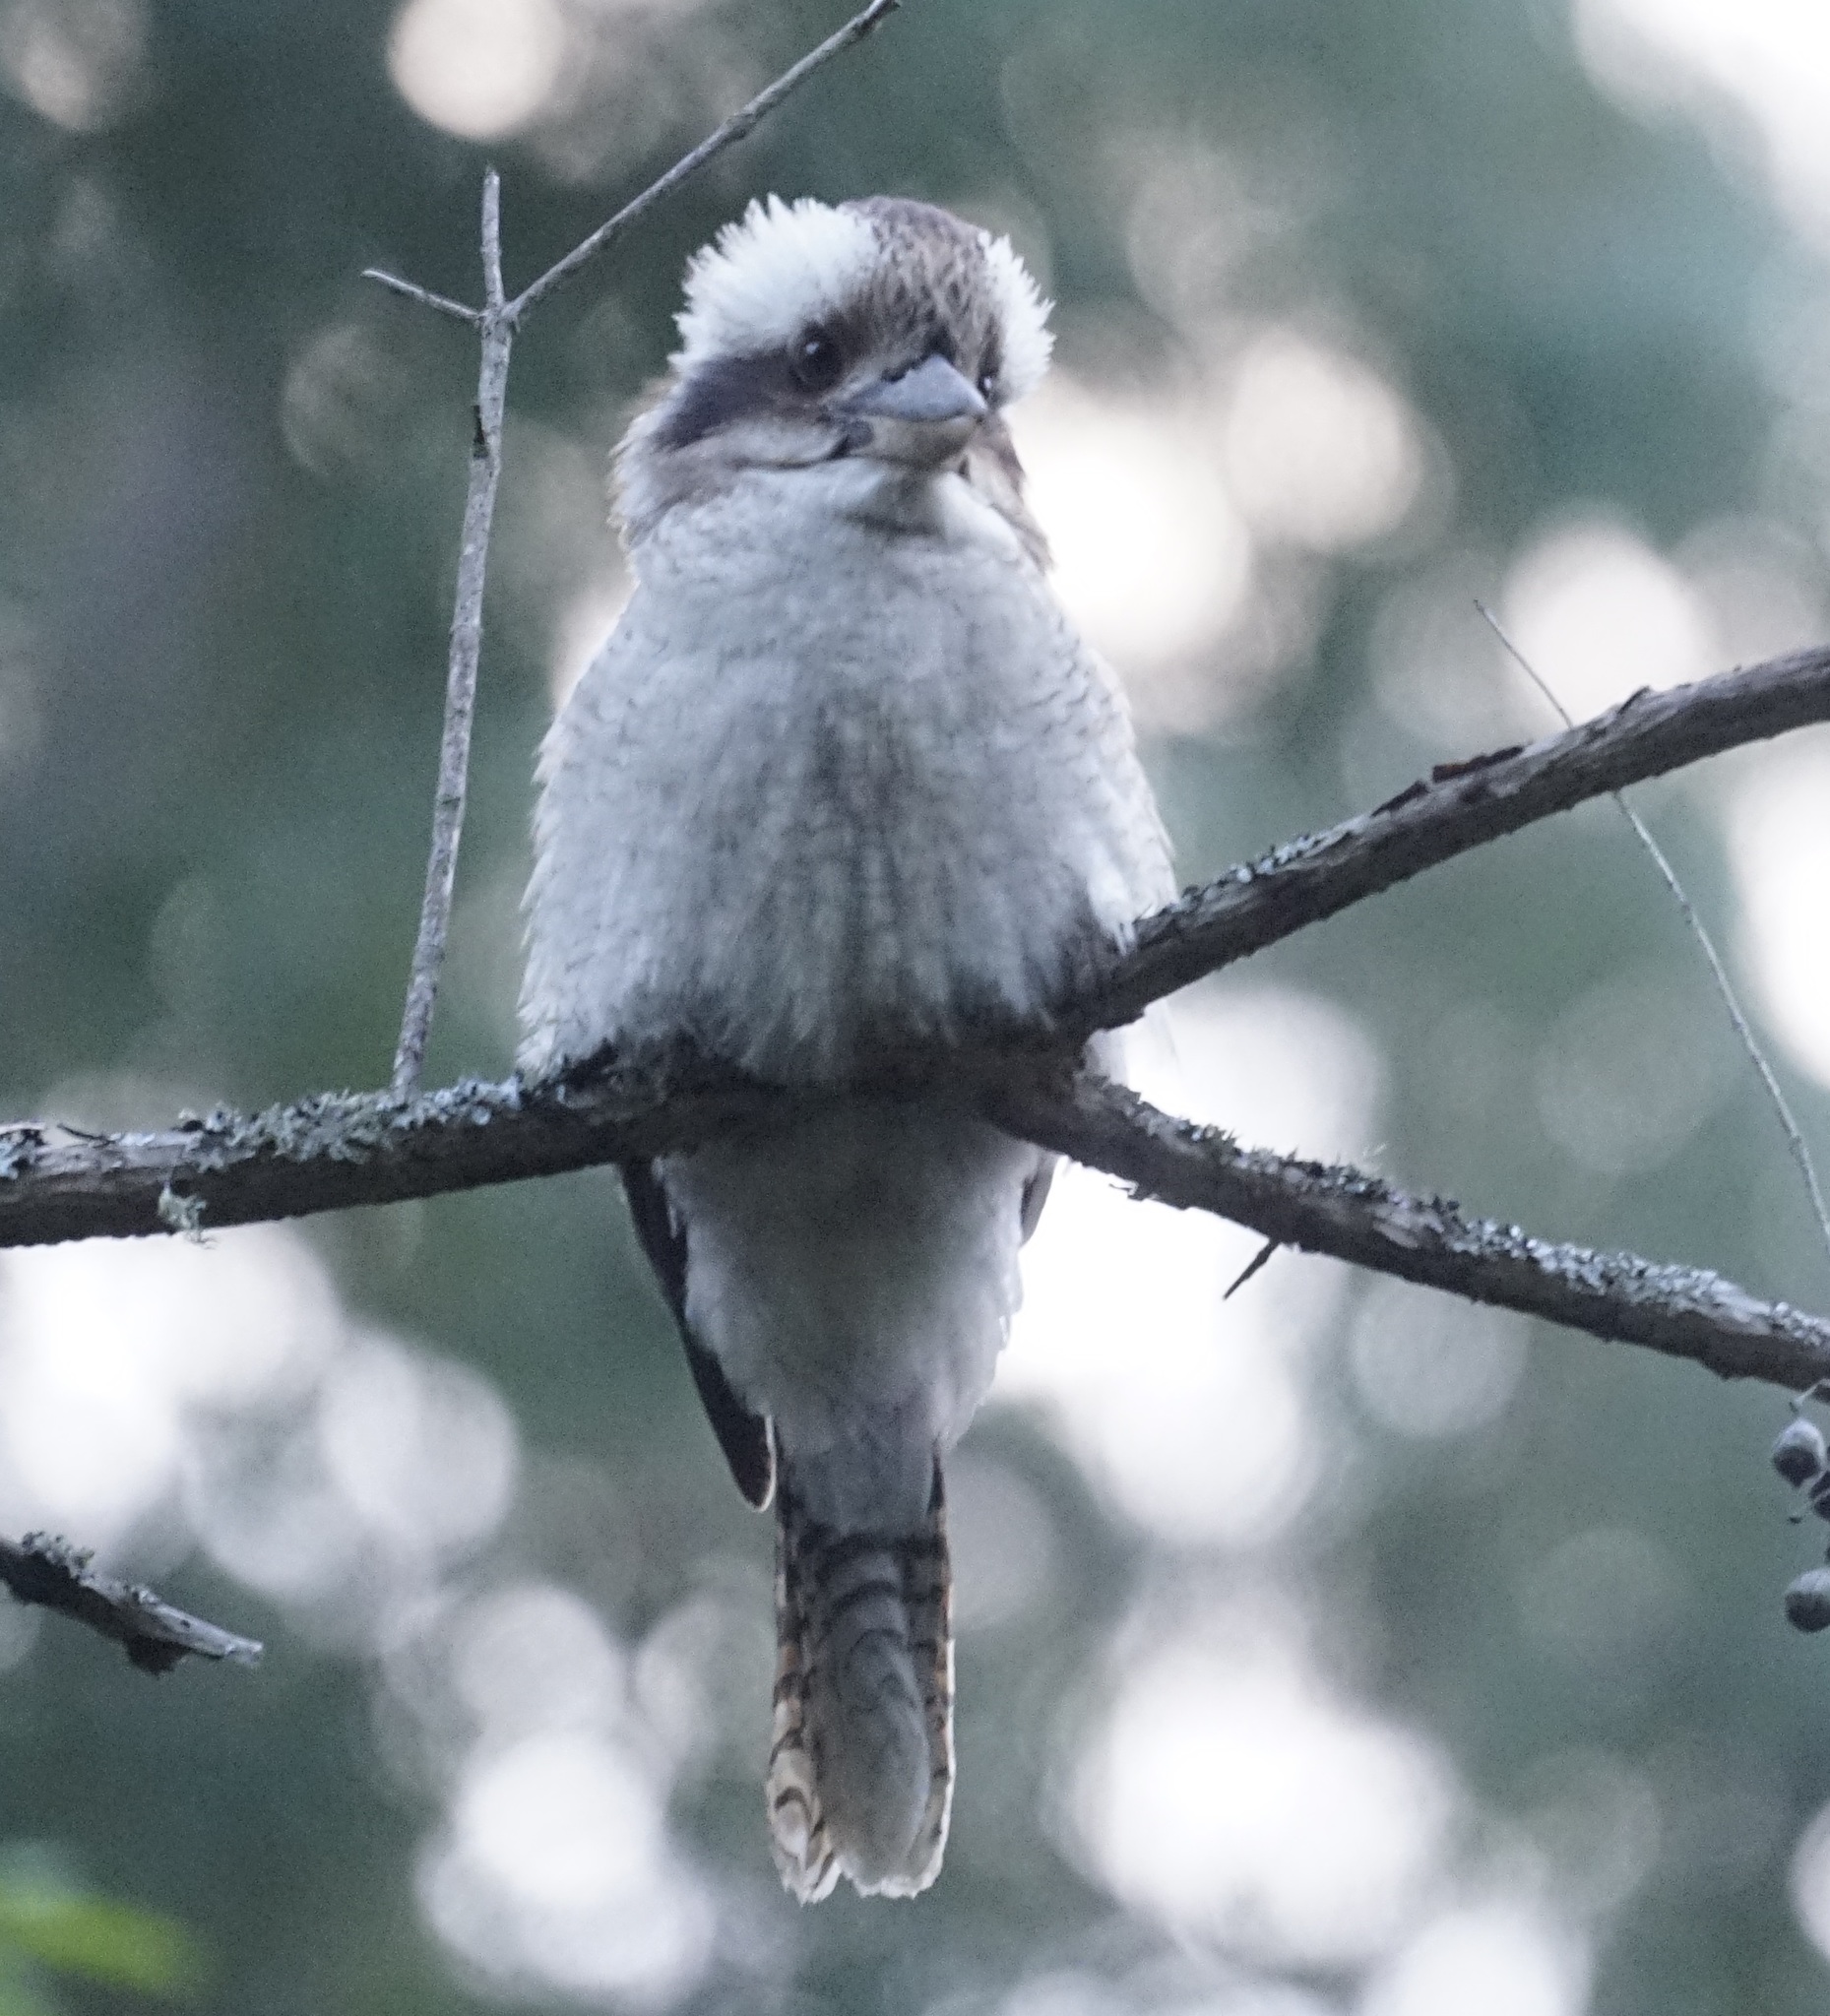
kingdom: Animalia
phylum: Chordata
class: Aves
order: Coraciiformes
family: Alcedinidae
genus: Dacelo
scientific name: Dacelo novaeguineae
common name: Laughing kookaburra
